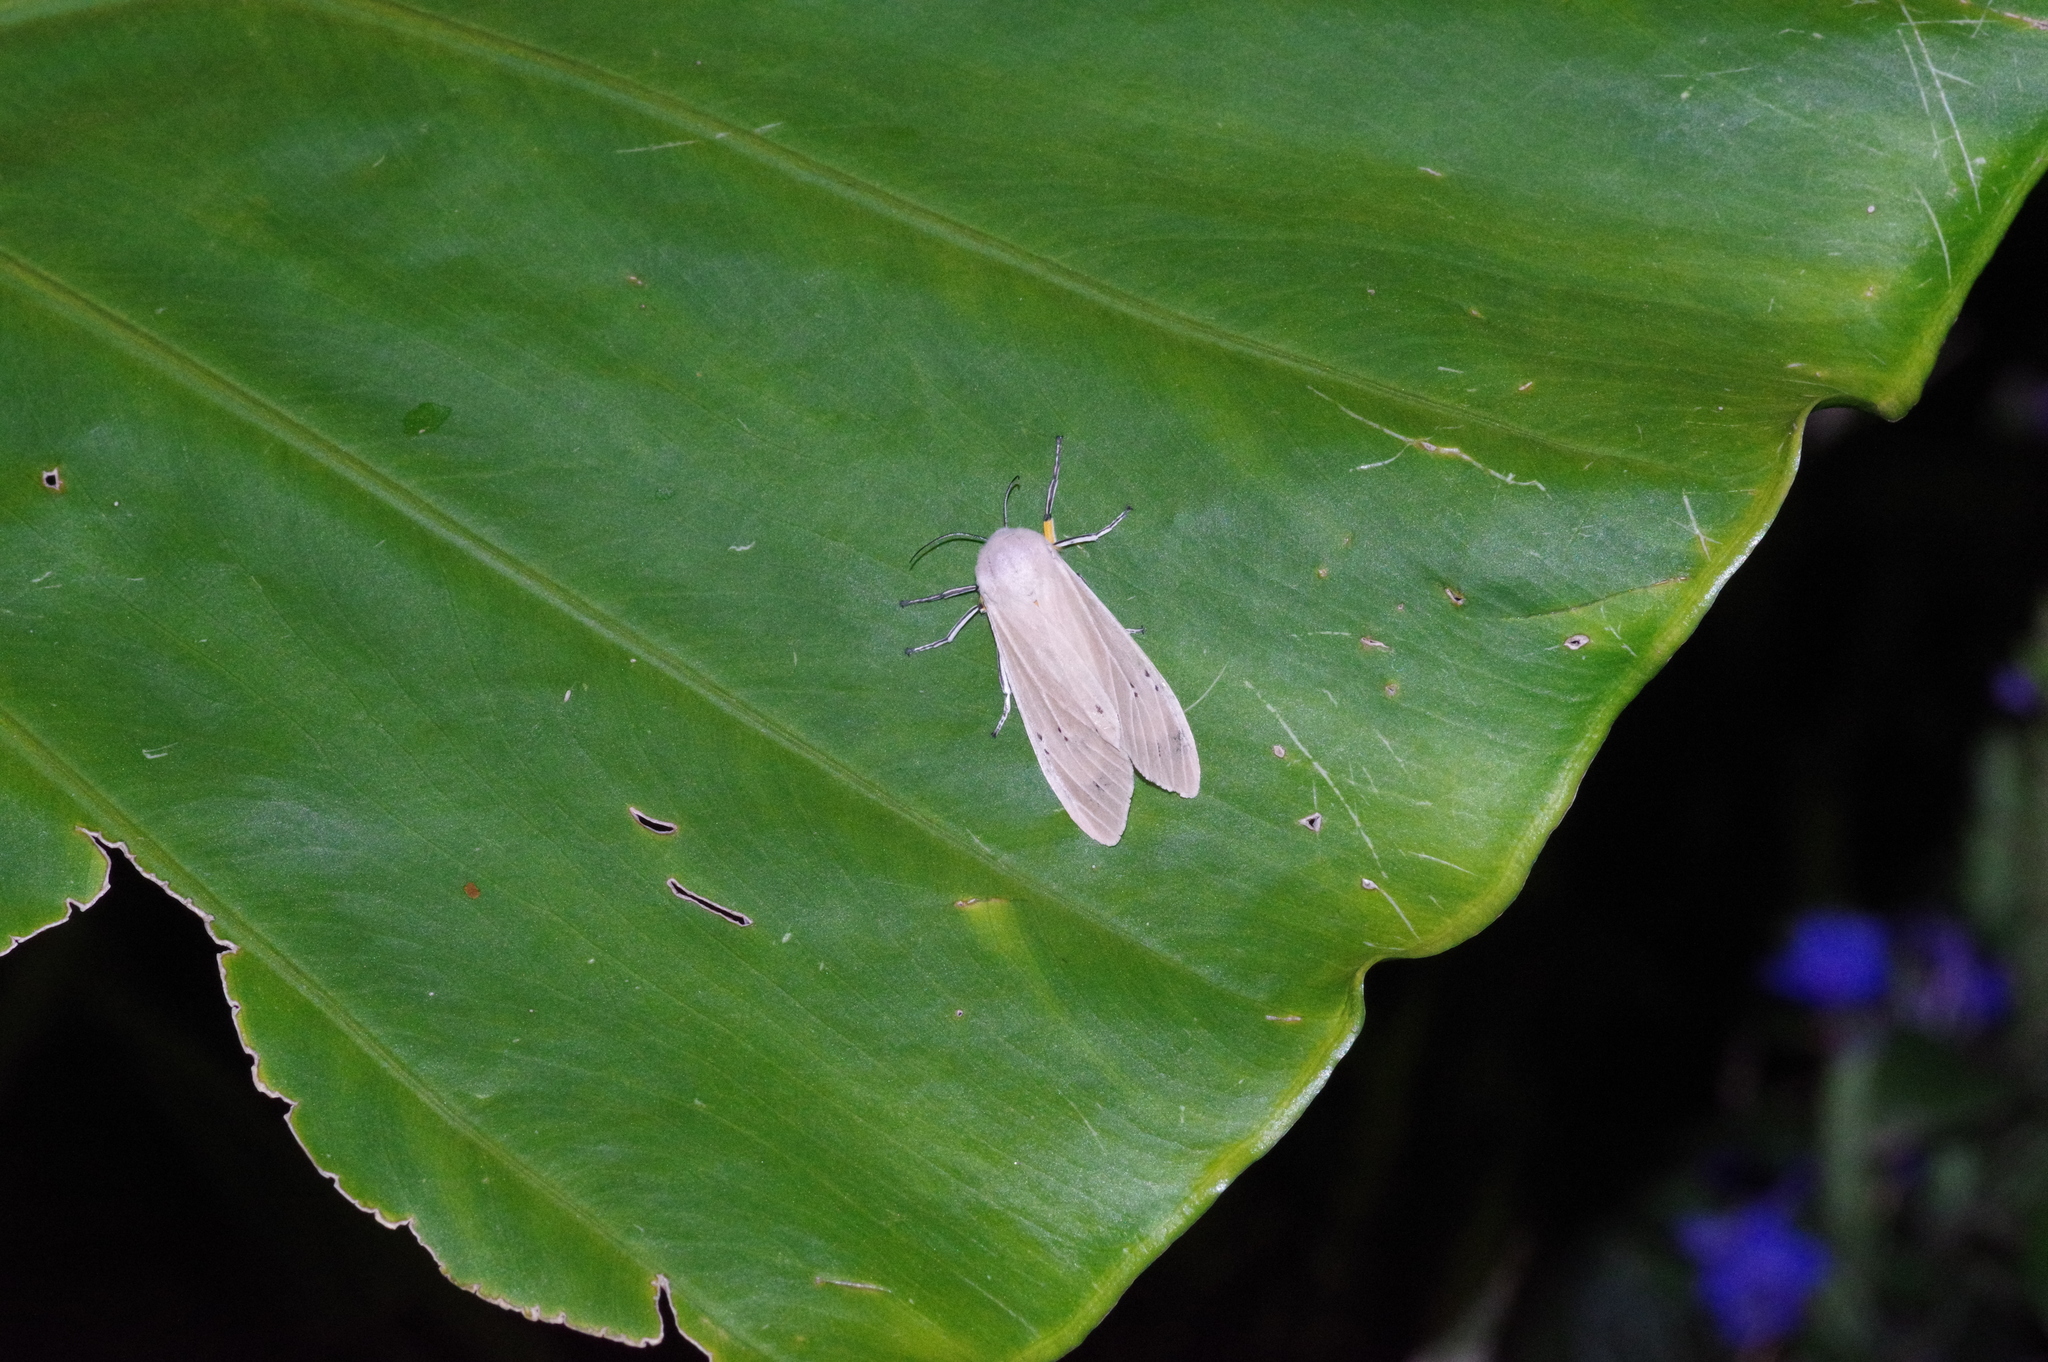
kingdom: Animalia
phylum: Arthropoda
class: Insecta
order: Lepidoptera
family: Erebidae
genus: Creatonotos
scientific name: Creatonotos transiens
